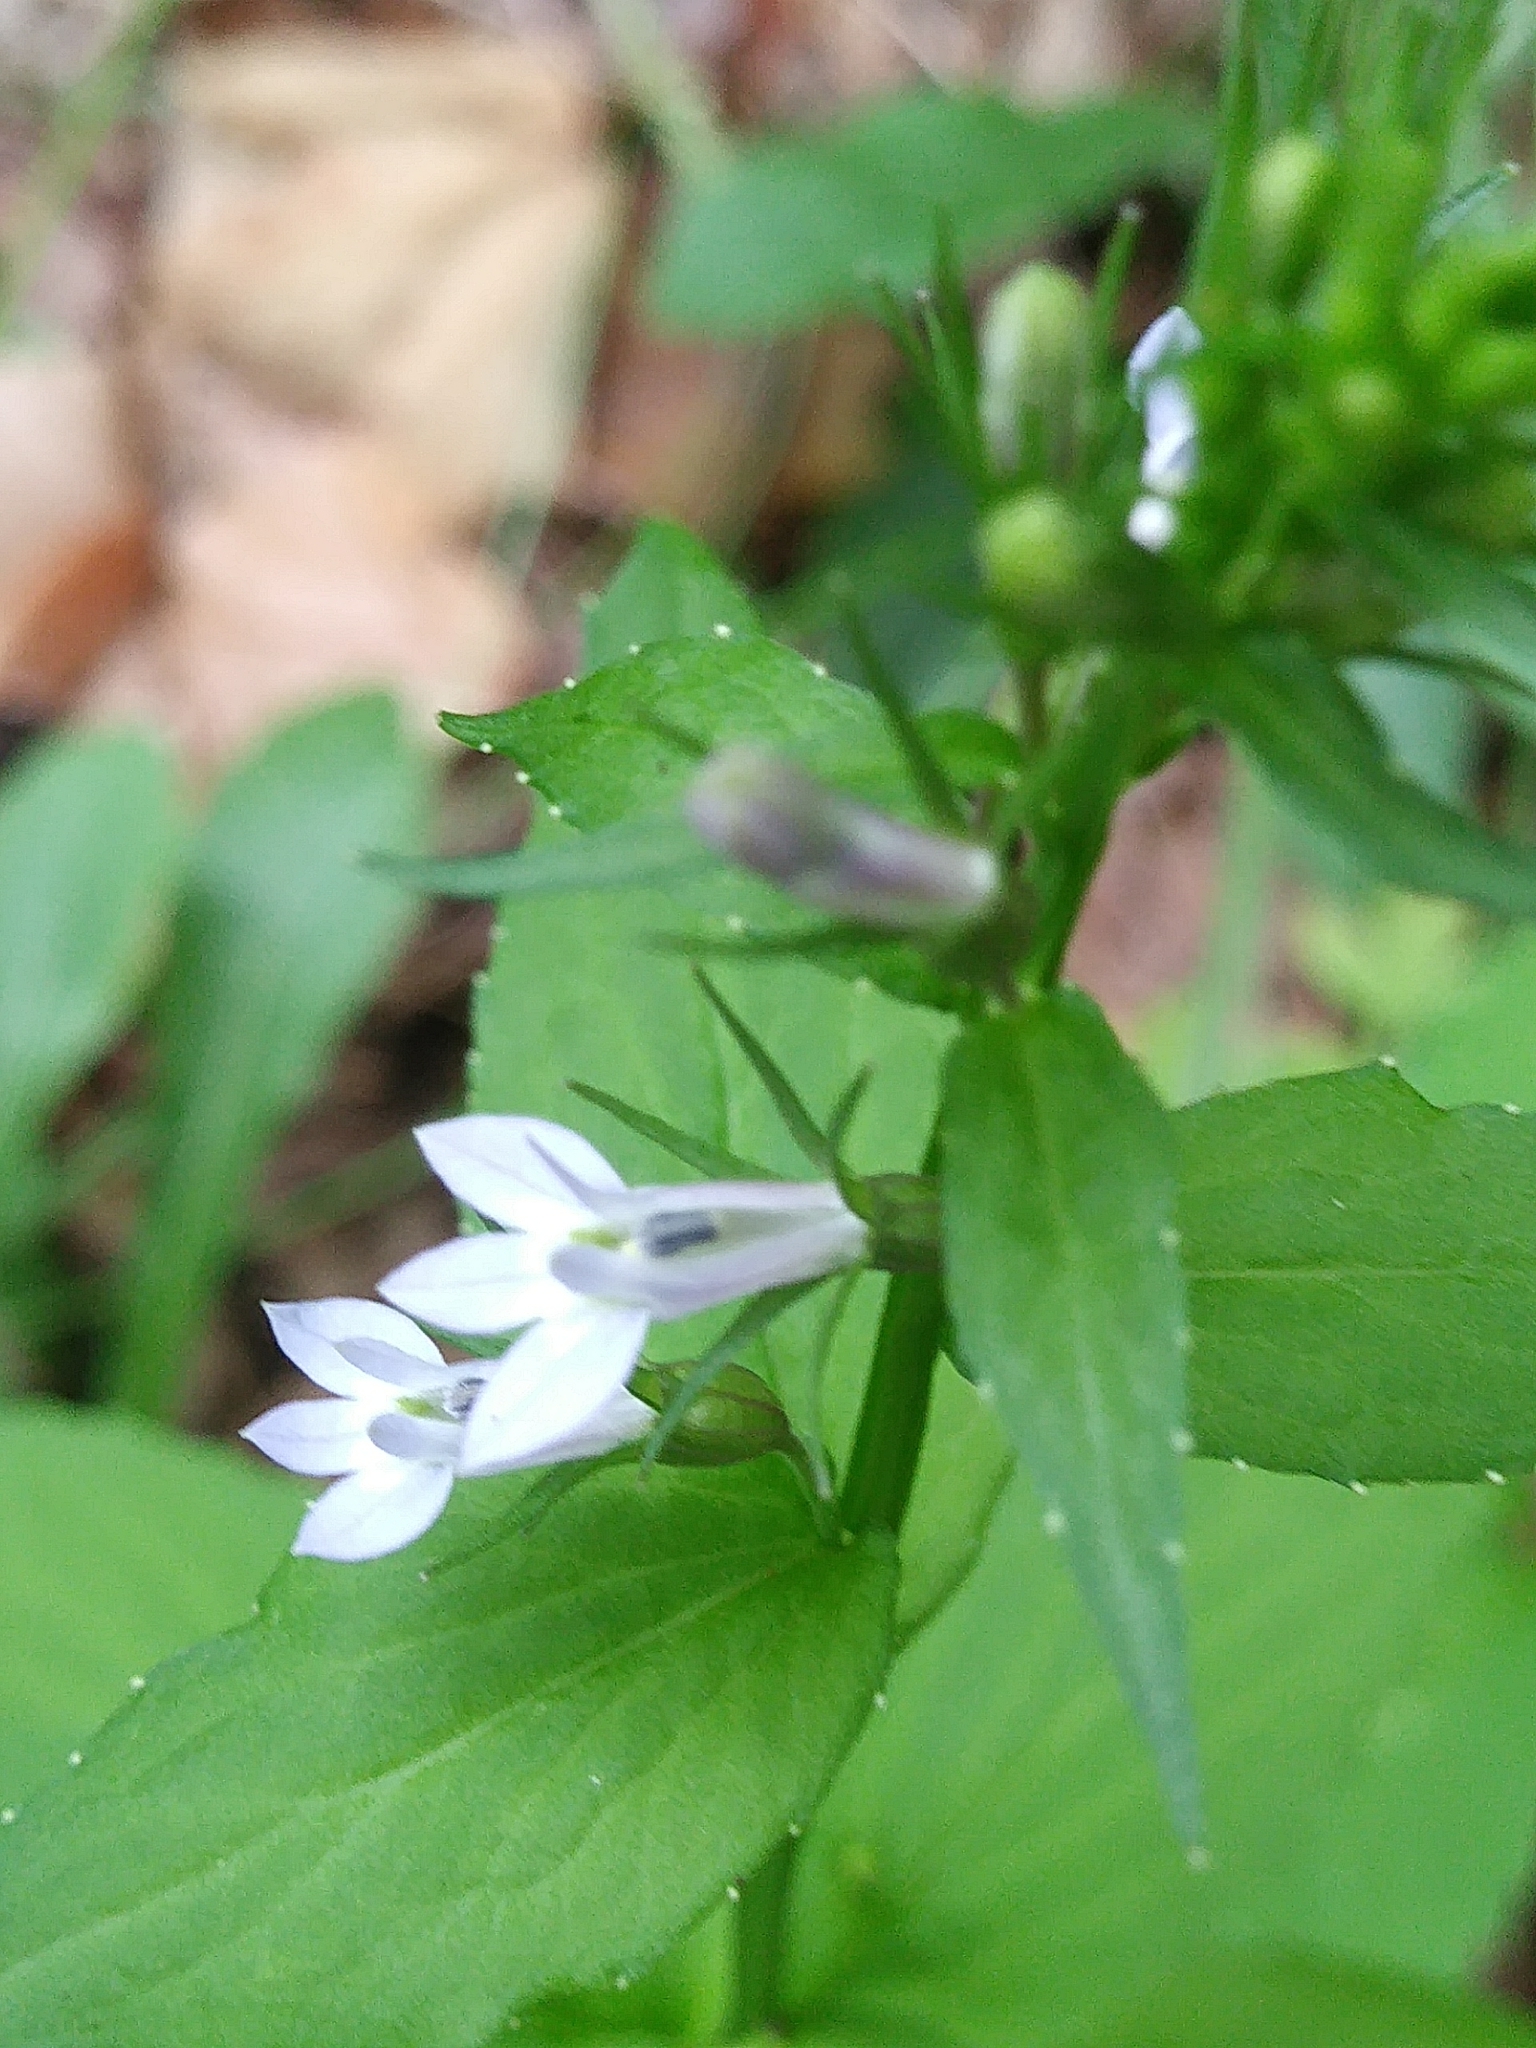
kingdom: Plantae
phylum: Tracheophyta
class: Magnoliopsida
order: Asterales
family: Campanulaceae
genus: Lobelia
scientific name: Lobelia inflata
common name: Indian tobacco
